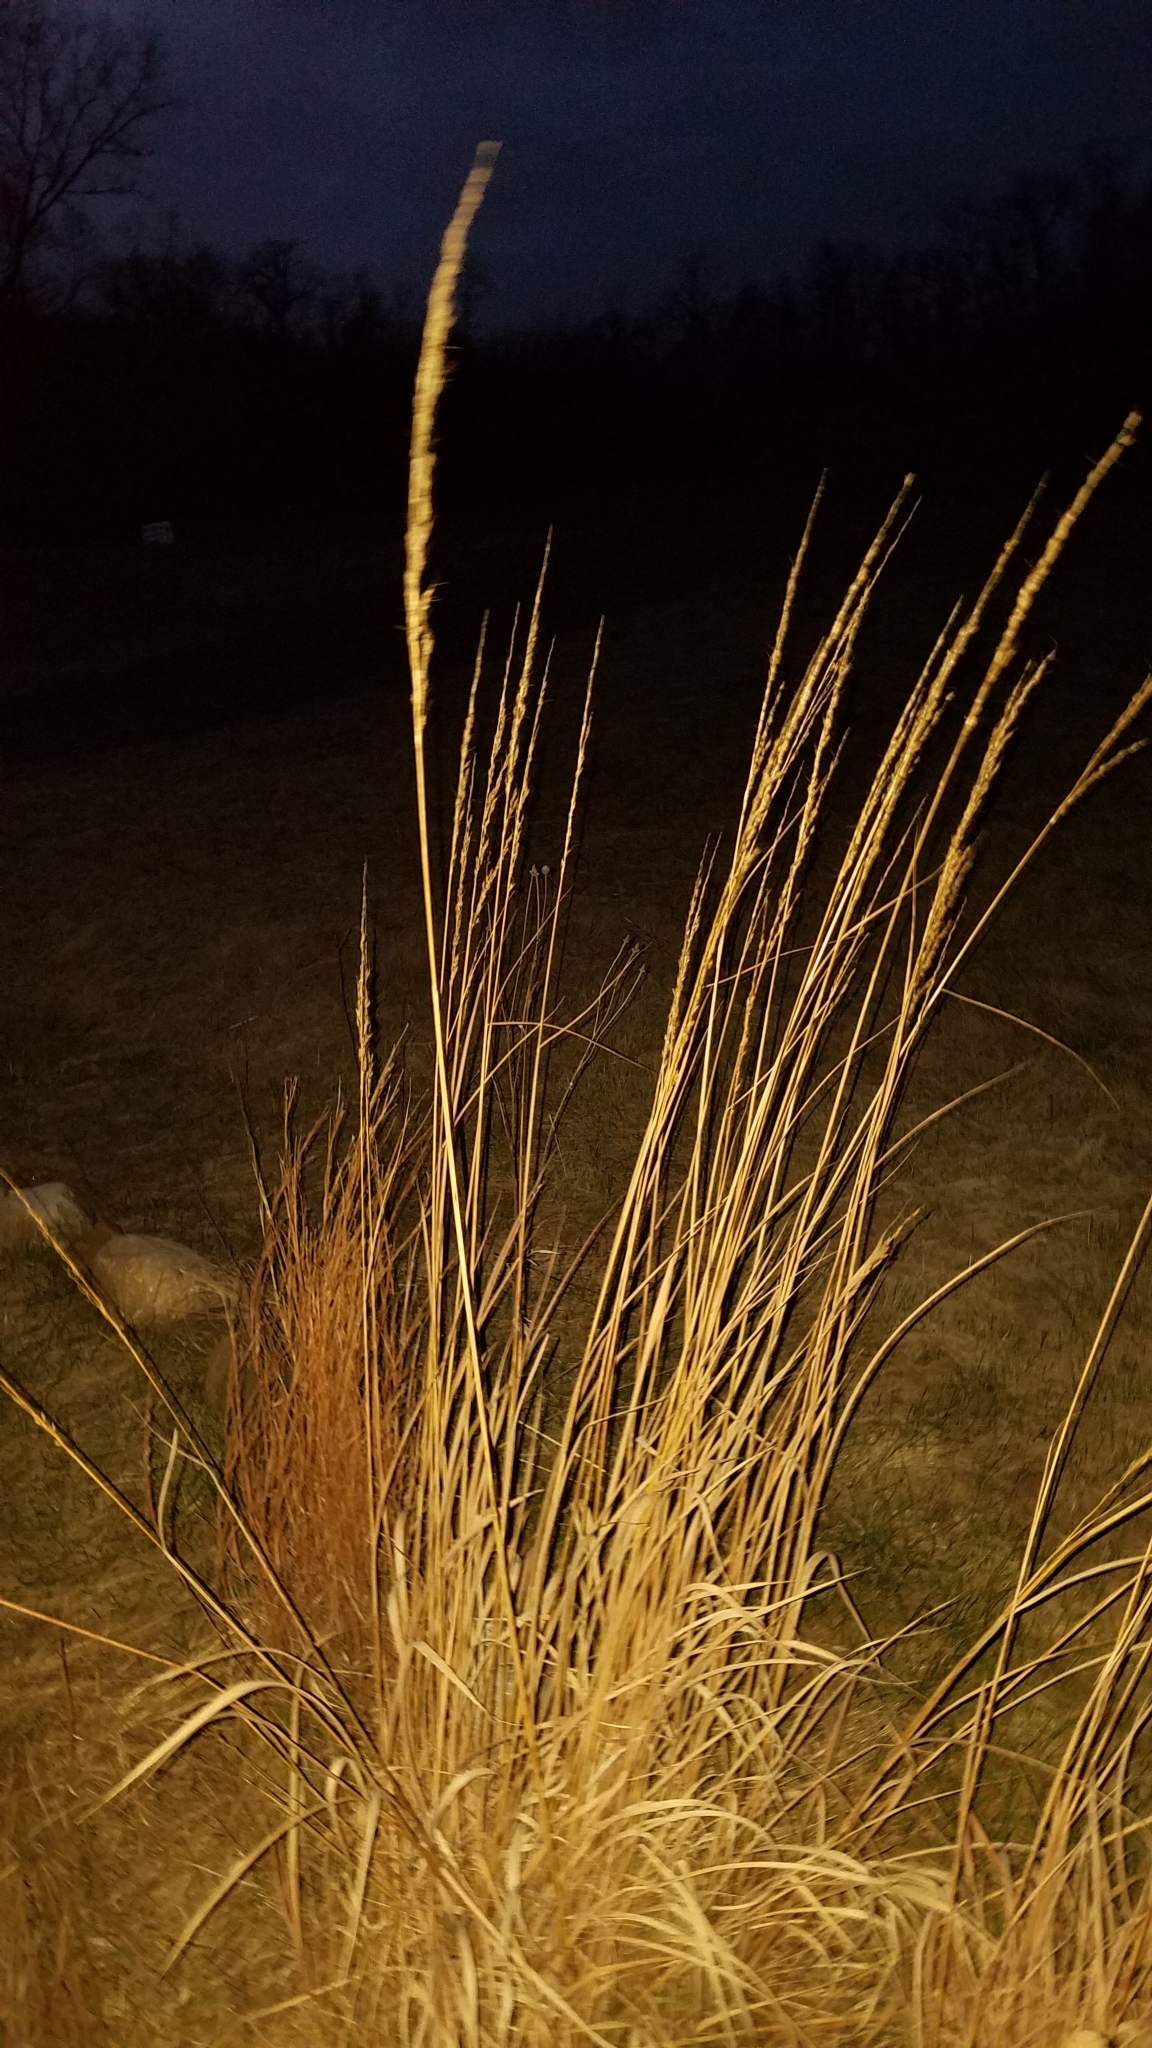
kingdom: Plantae
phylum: Tracheophyta
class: Liliopsida
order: Poales
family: Poaceae
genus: Sorghastrum
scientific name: Sorghastrum nutans
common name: Indian grass
